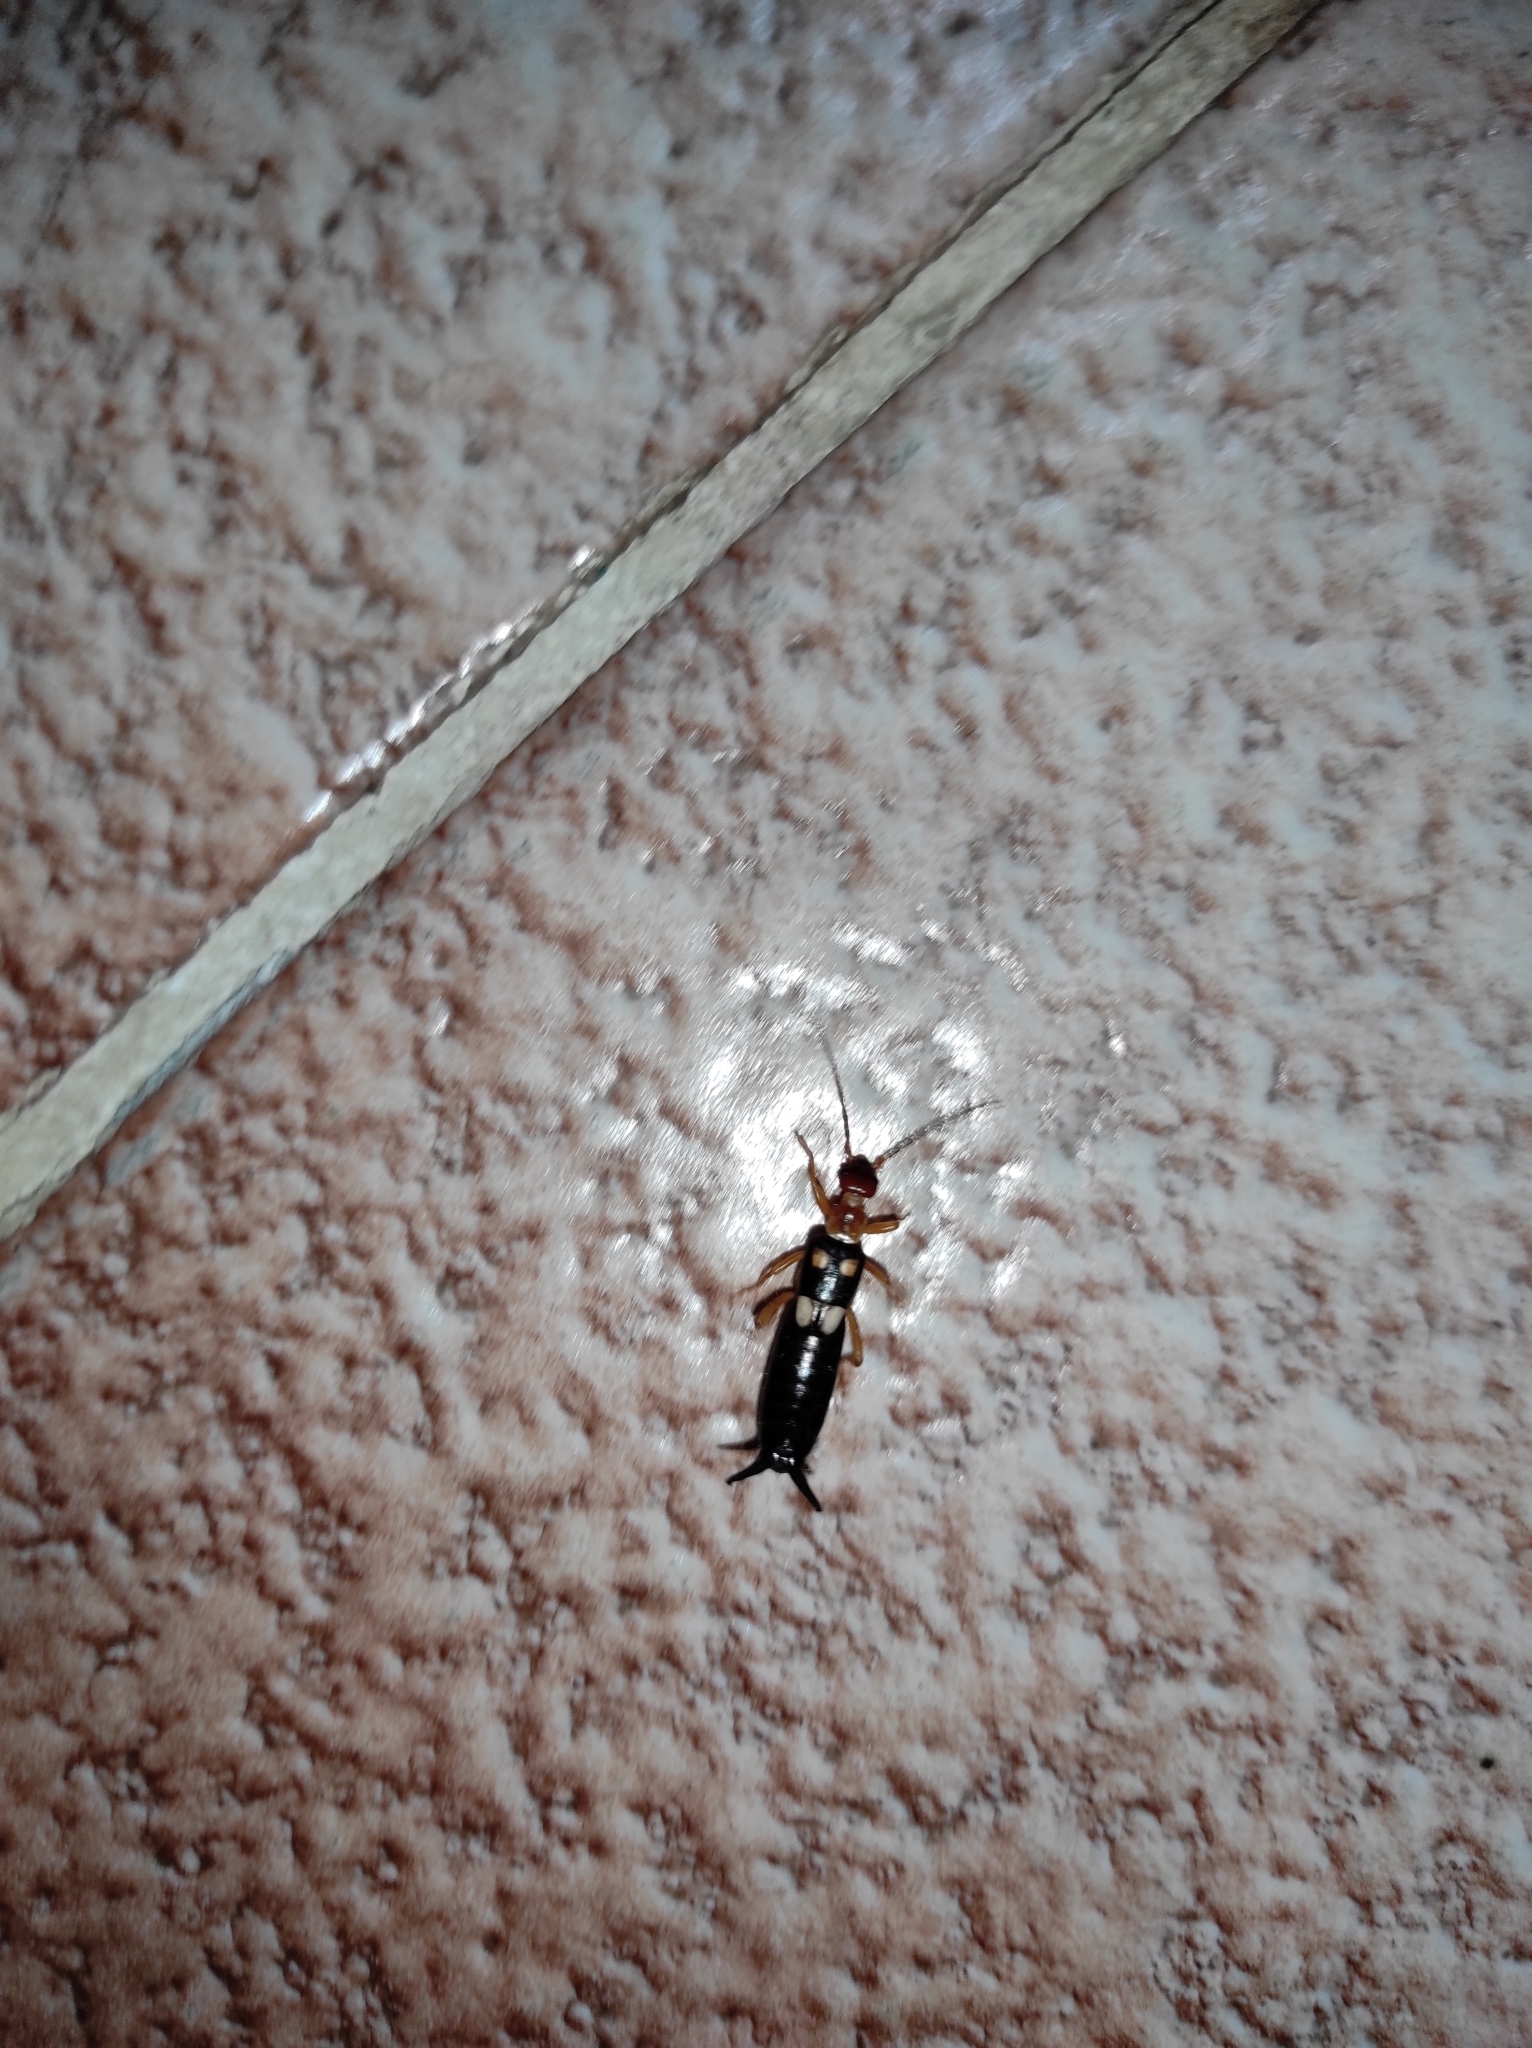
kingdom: Animalia
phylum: Arthropoda
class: Insecta
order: Dermaptera
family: Forficulidae
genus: Forficula
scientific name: Forficula smyrnensis
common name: Smyrna earwig
